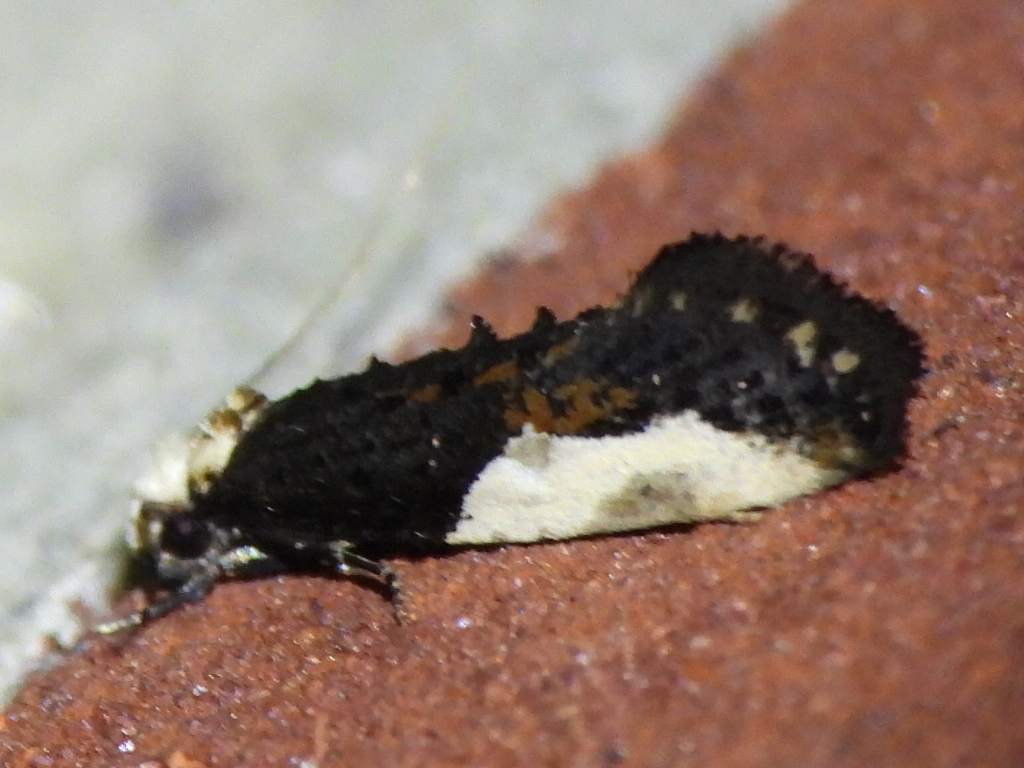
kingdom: Animalia
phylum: Arthropoda
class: Insecta
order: Lepidoptera
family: Tineidae
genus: Monopis
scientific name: Monopis longella
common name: Pavlovski's monopis moth
